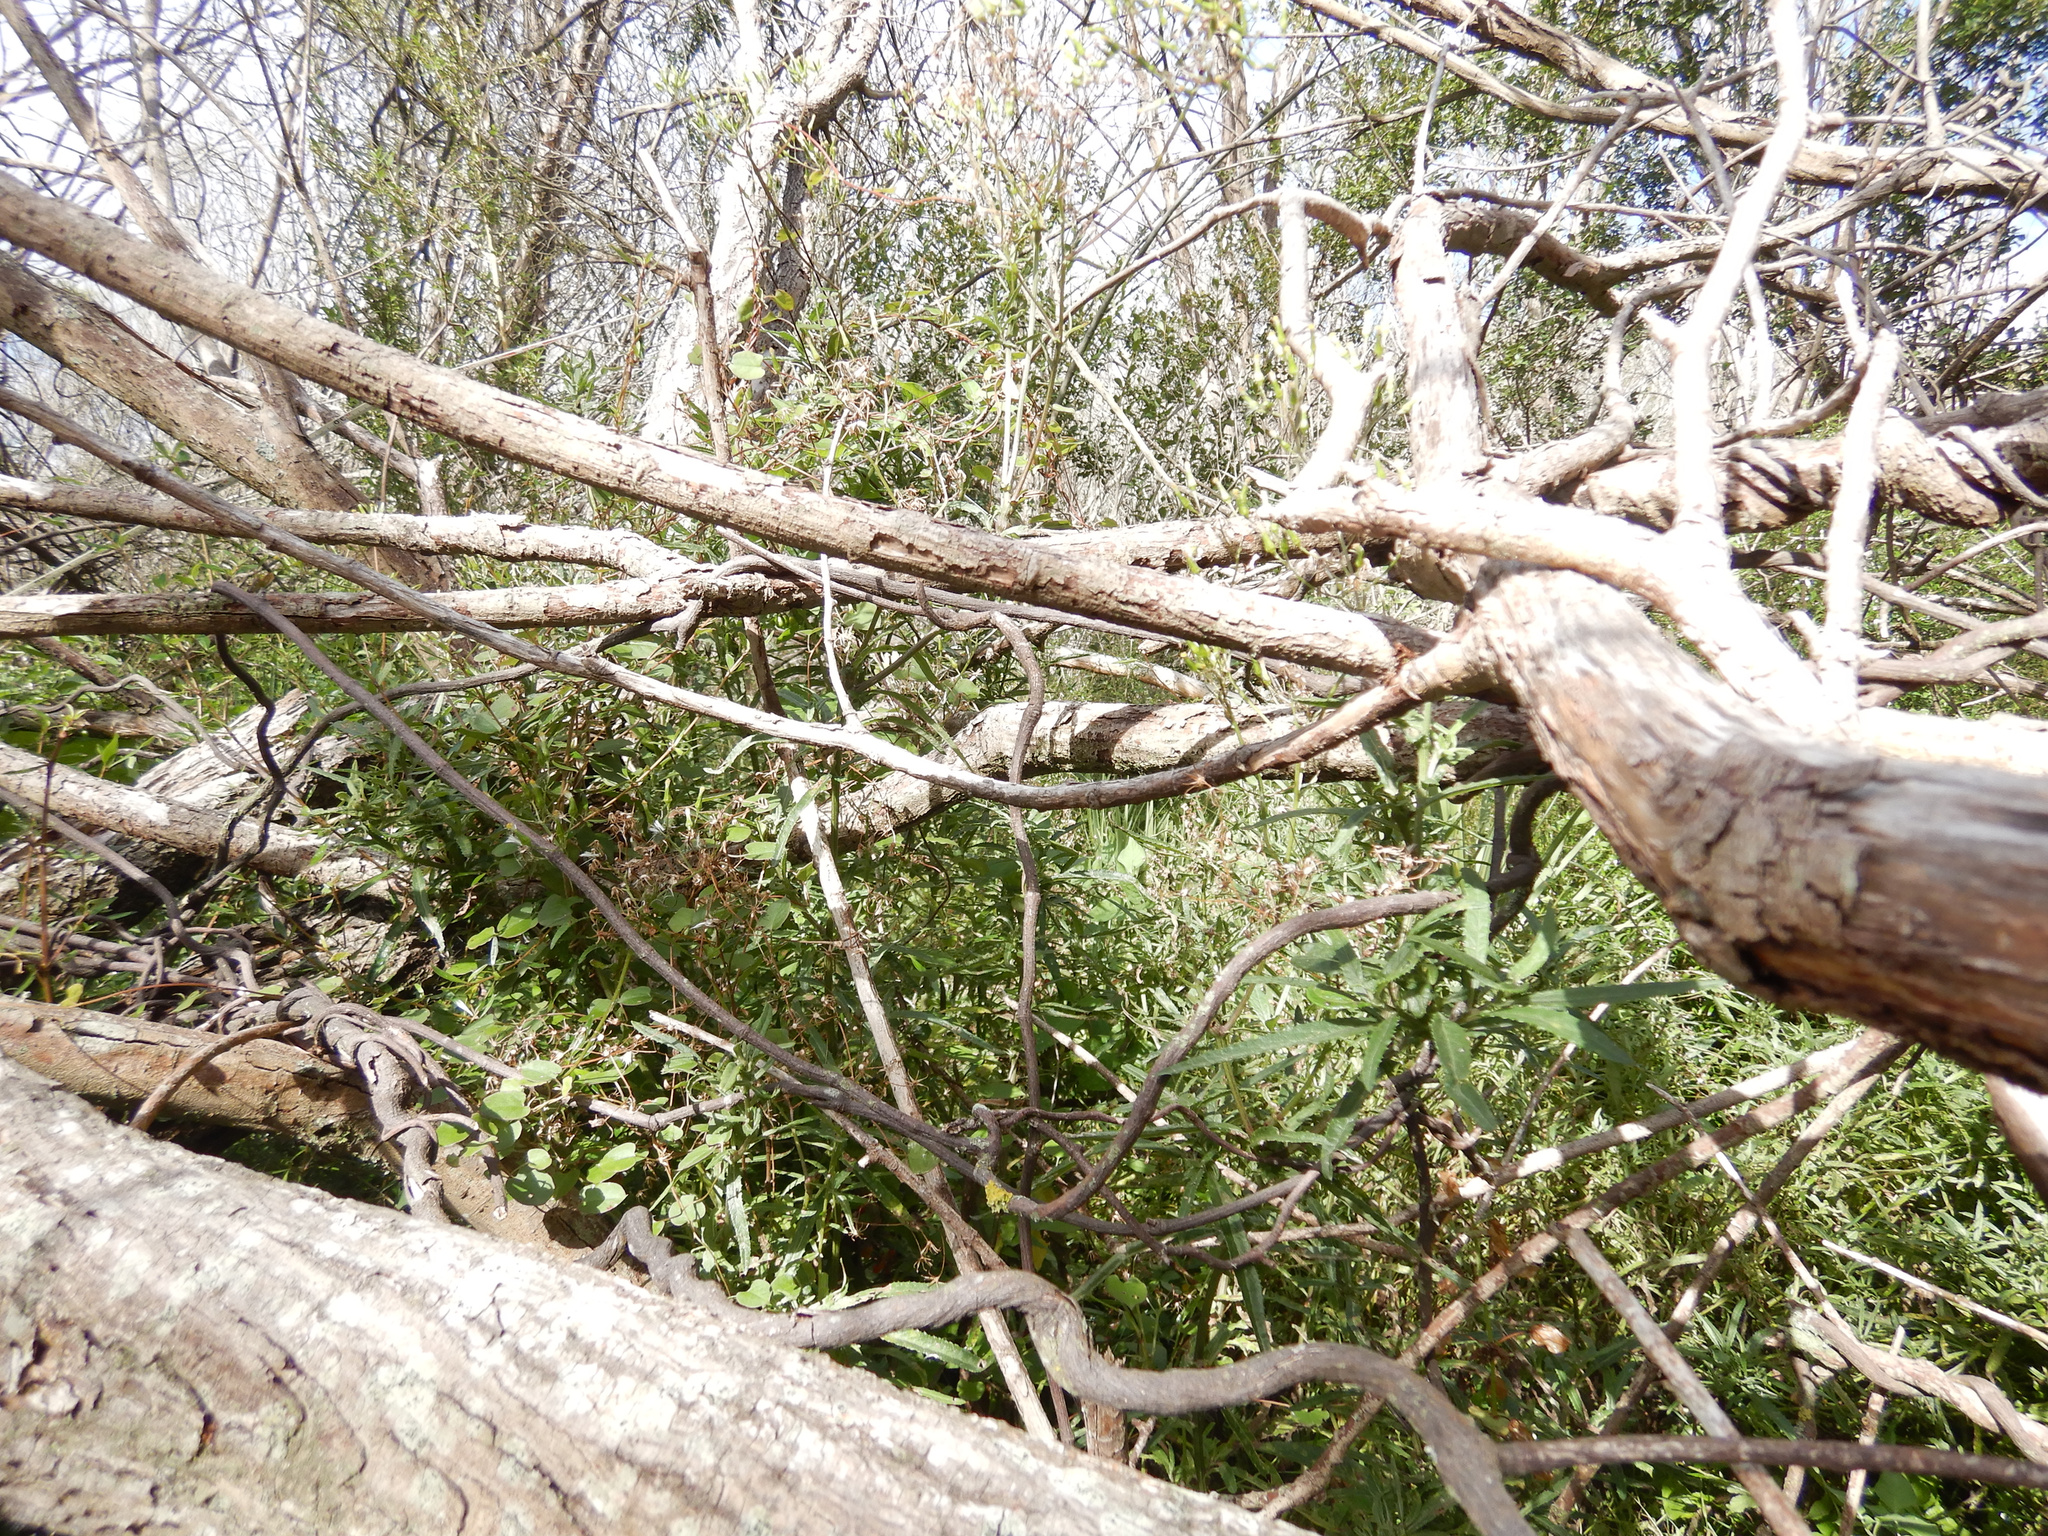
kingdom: Plantae
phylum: Tracheophyta
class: Magnoliopsida
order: Caryophyllales
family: Polygonaceae
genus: Muehlenbeckia
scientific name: Muehlenbeckia australis
